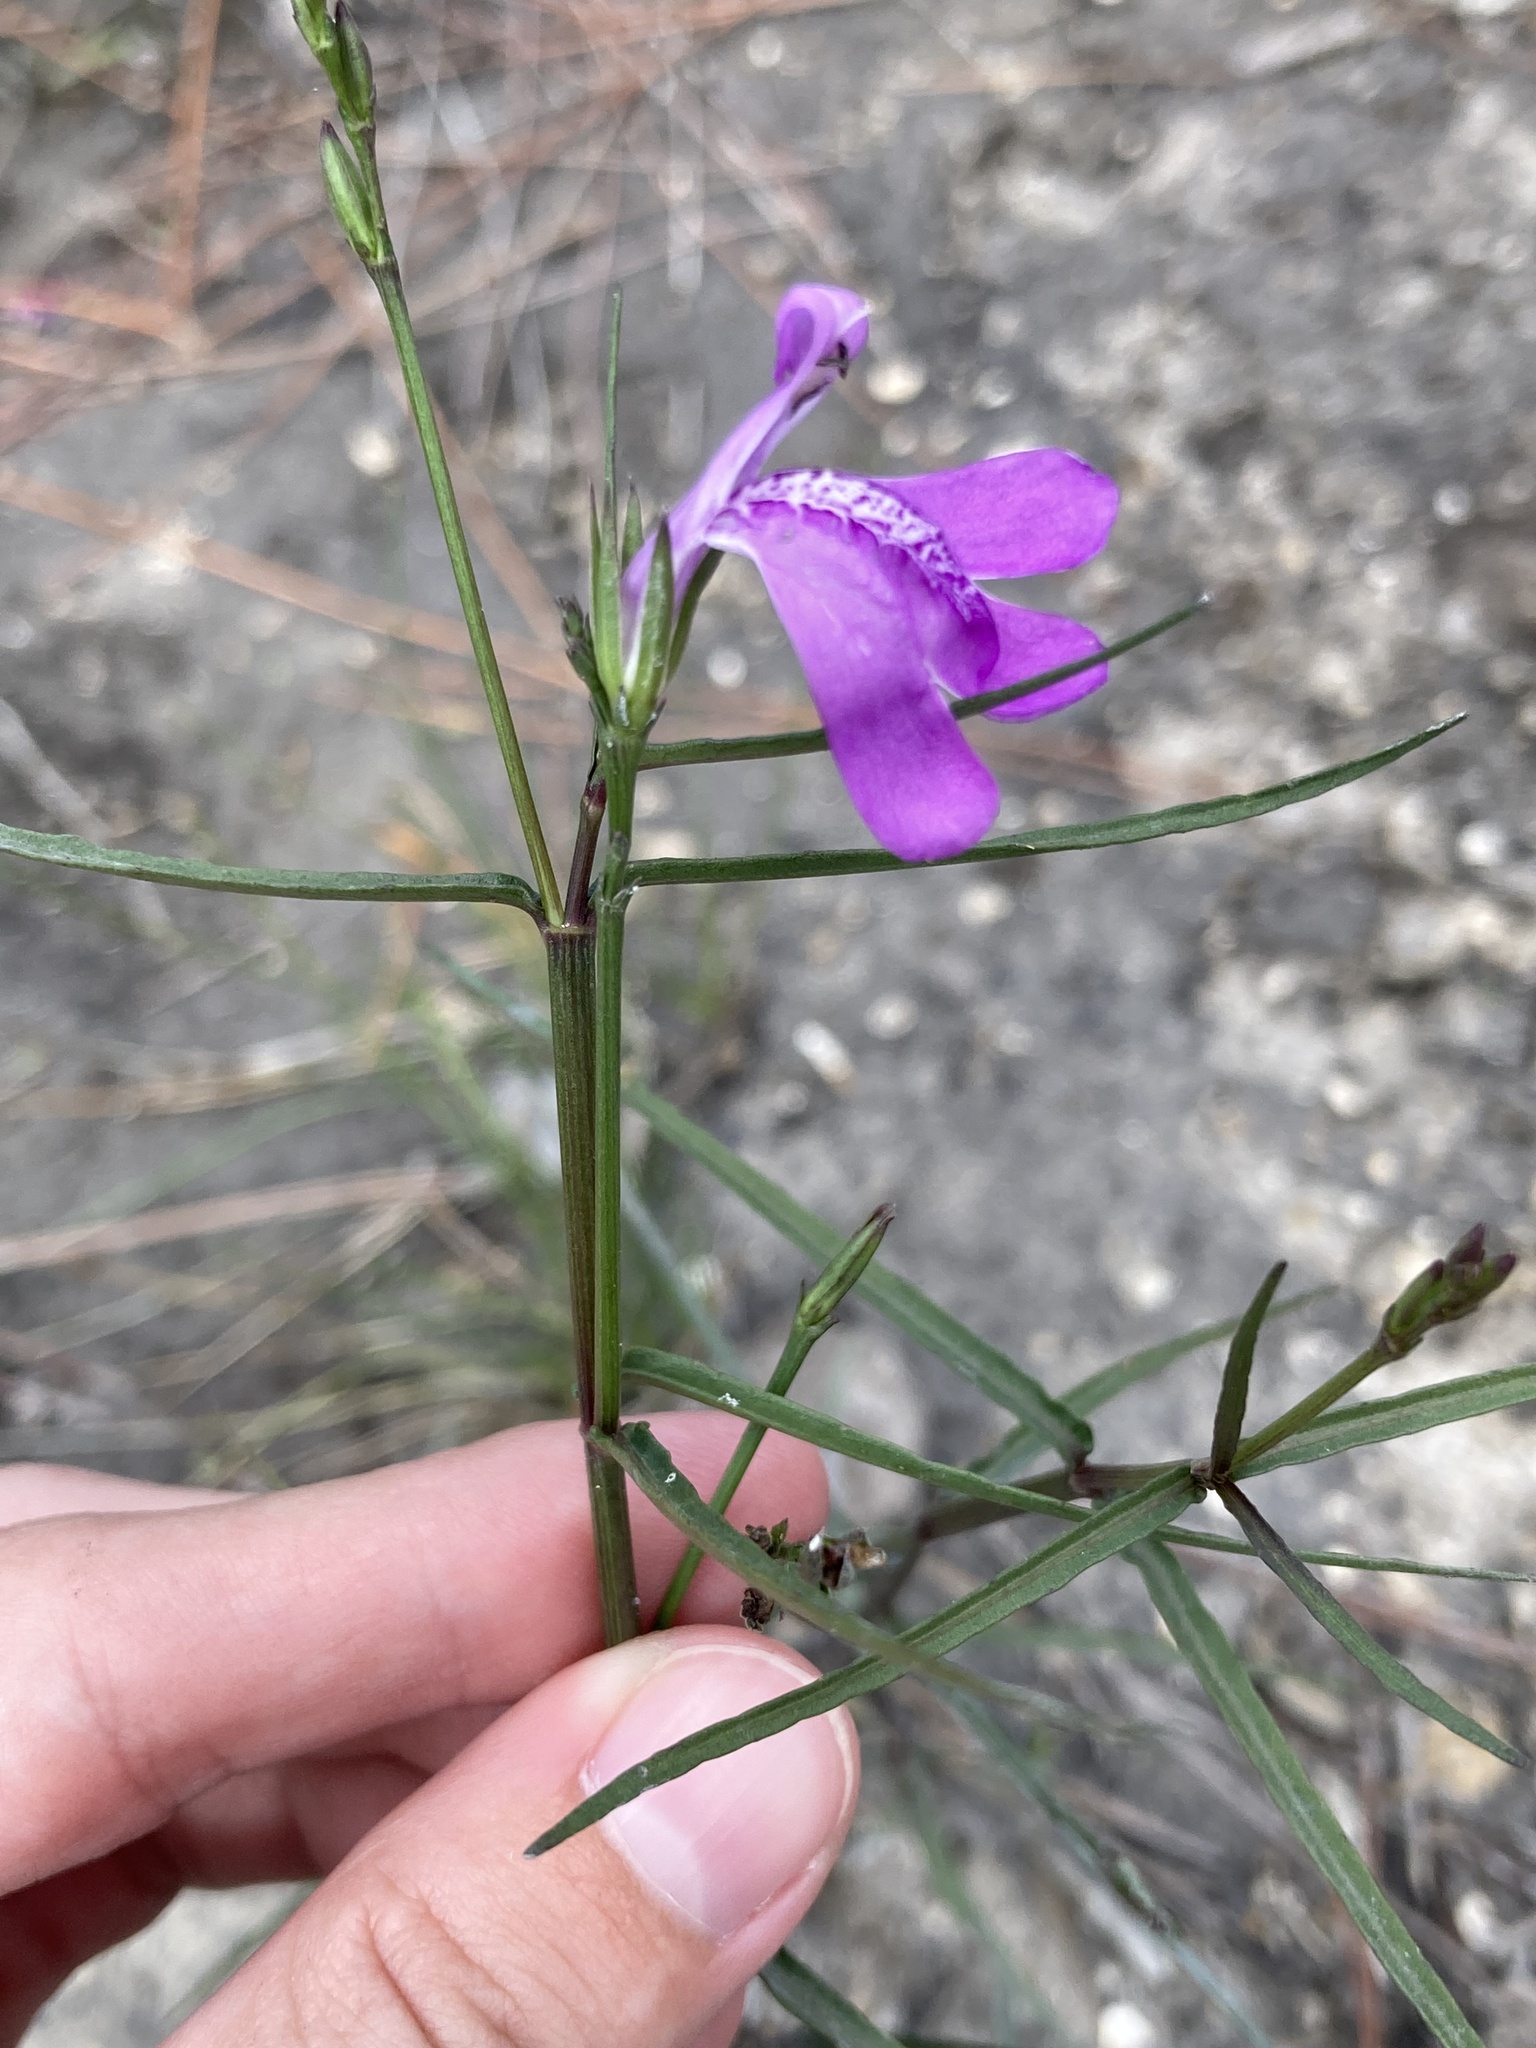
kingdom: Plantae
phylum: Tracheophyta
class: Magnoliopsida
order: Lamiales
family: Acanthaceae
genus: Dianthera
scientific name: Dianthera angusta
